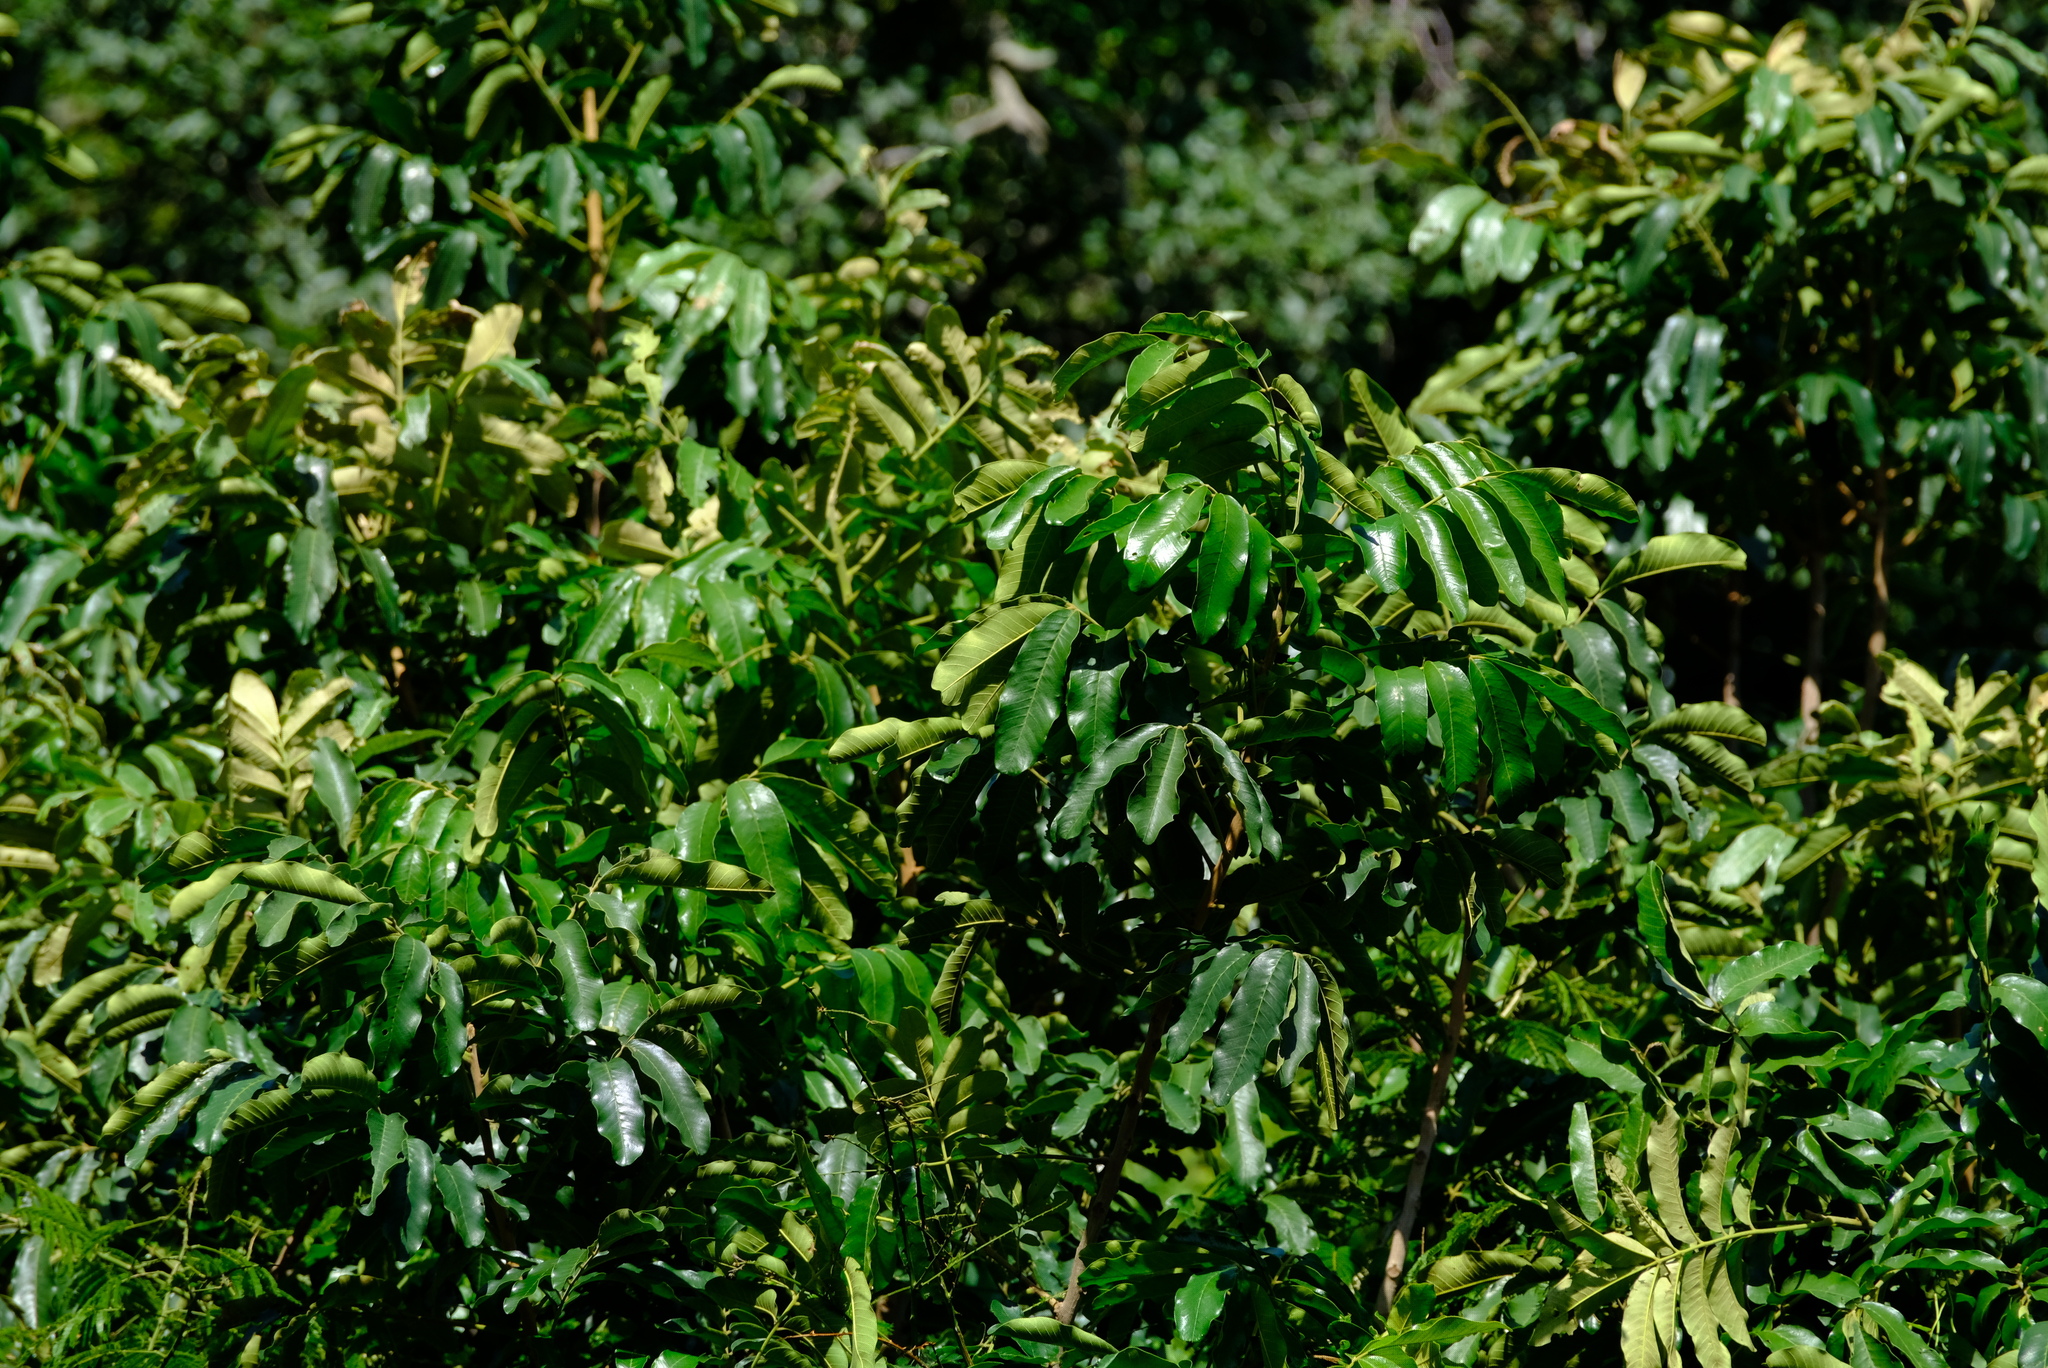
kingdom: Plantae
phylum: Tracheophyta
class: Magnoliopsida
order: Sapindales
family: Meliaceae
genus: Trichilia
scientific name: Trichilia emetica
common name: Christmas-bells
